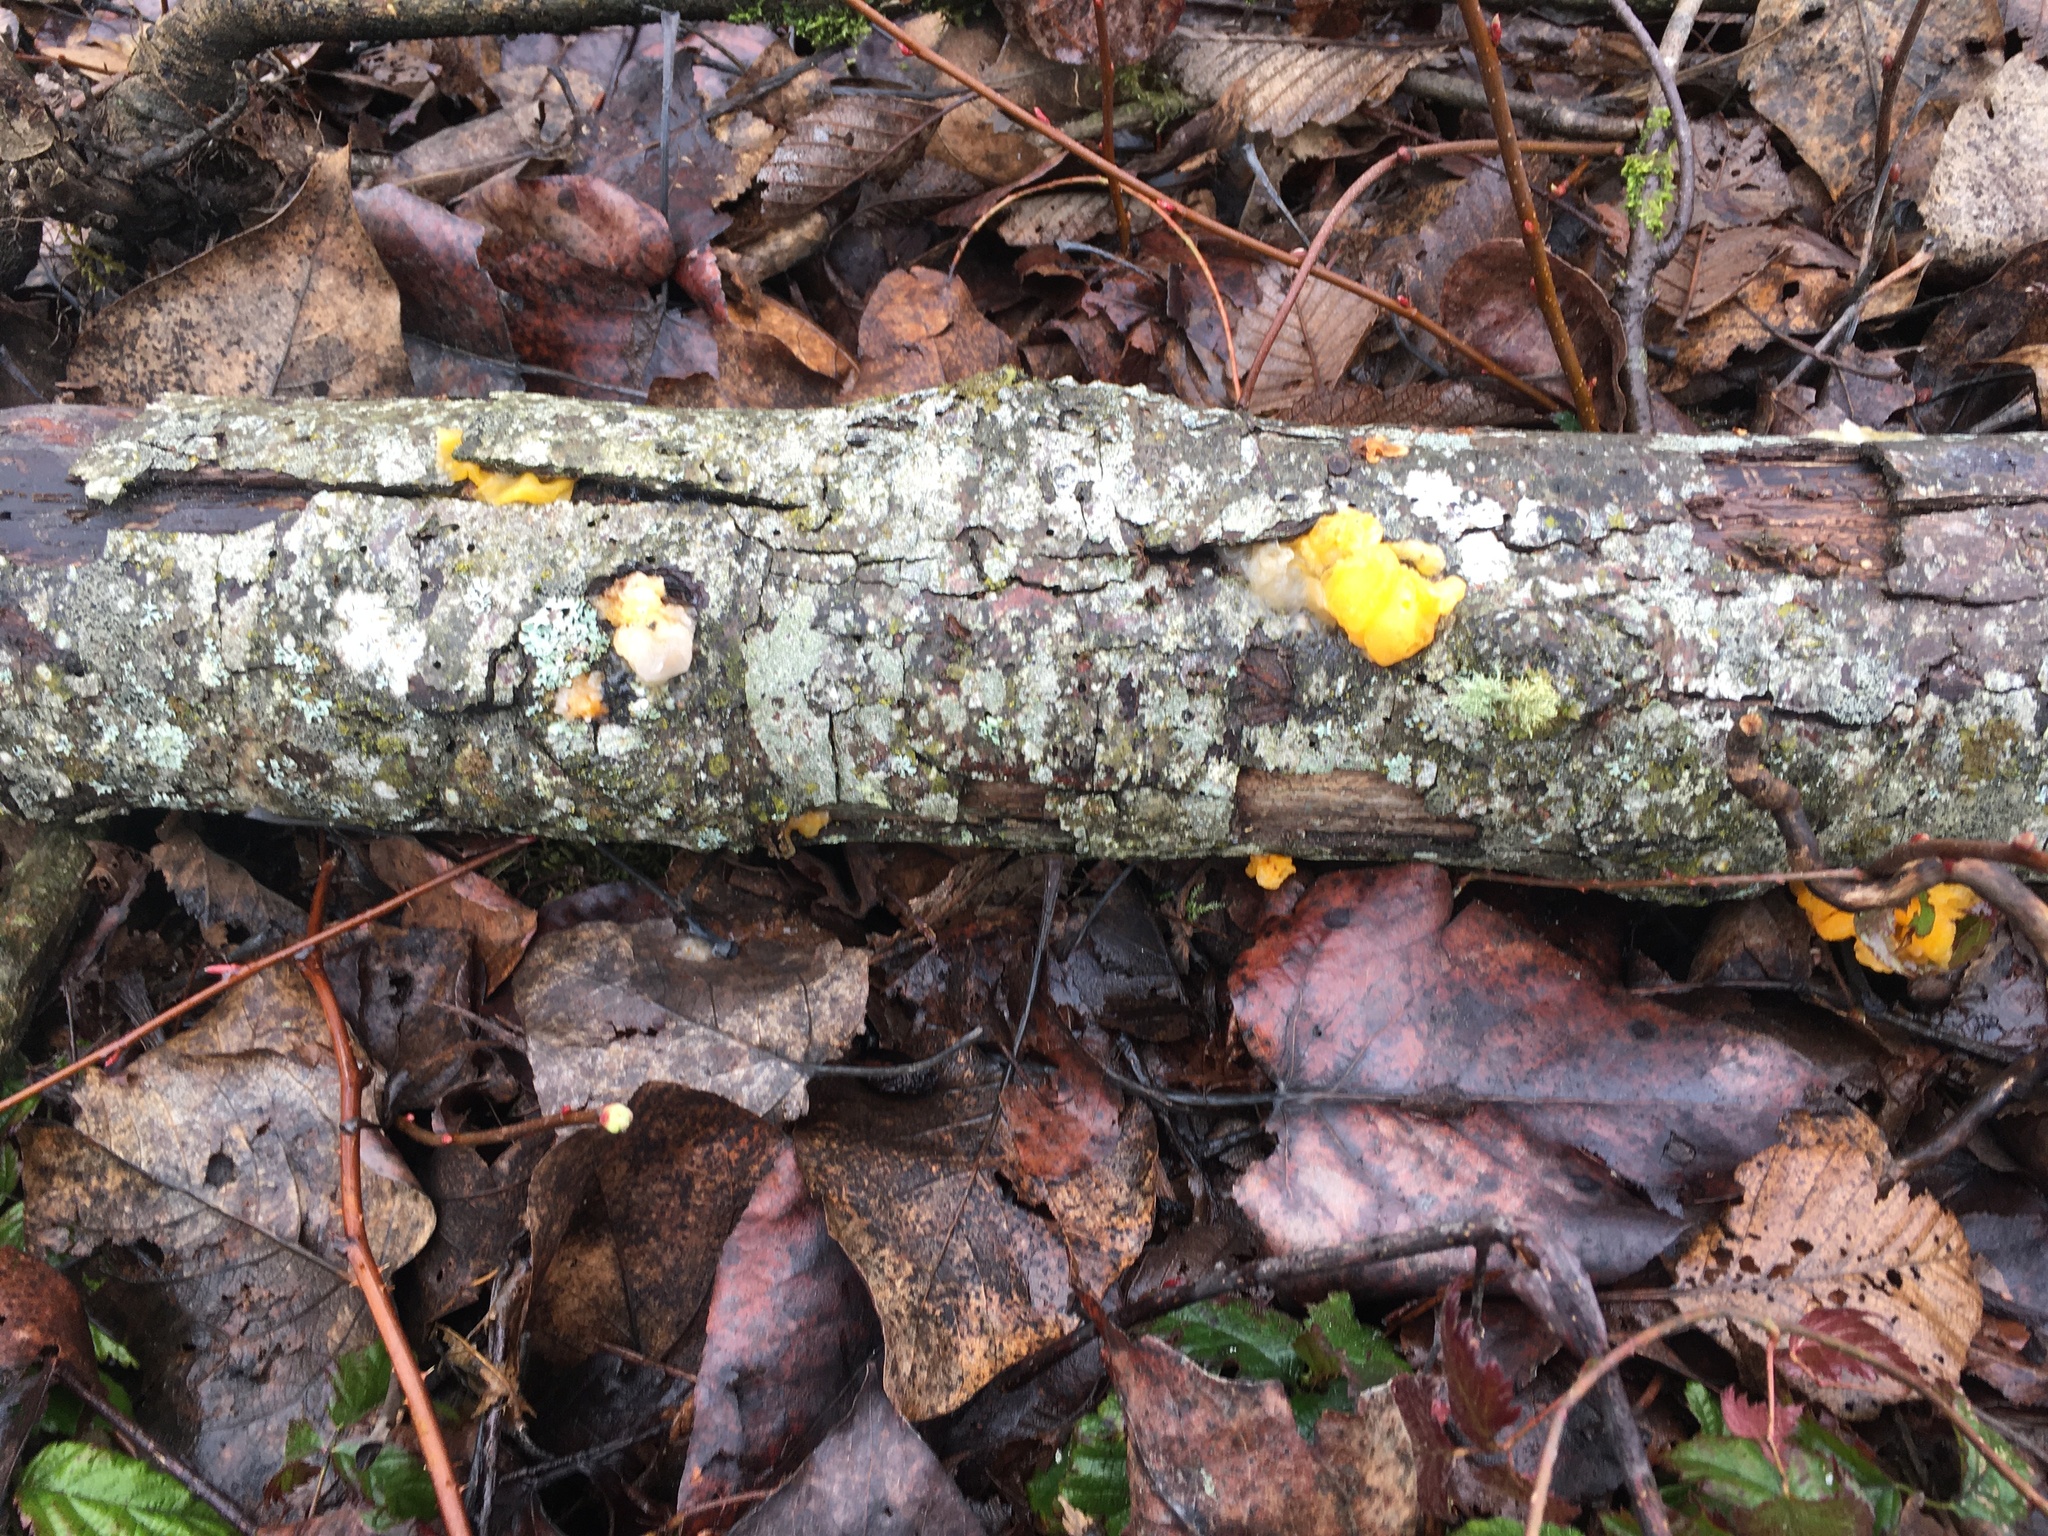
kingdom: Fungi
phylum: Basidiomycota
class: Tremellomycetes
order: Tremellales
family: Naemateliaceae
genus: Naematelia
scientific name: Naematelia aurantia
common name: Golden ear
